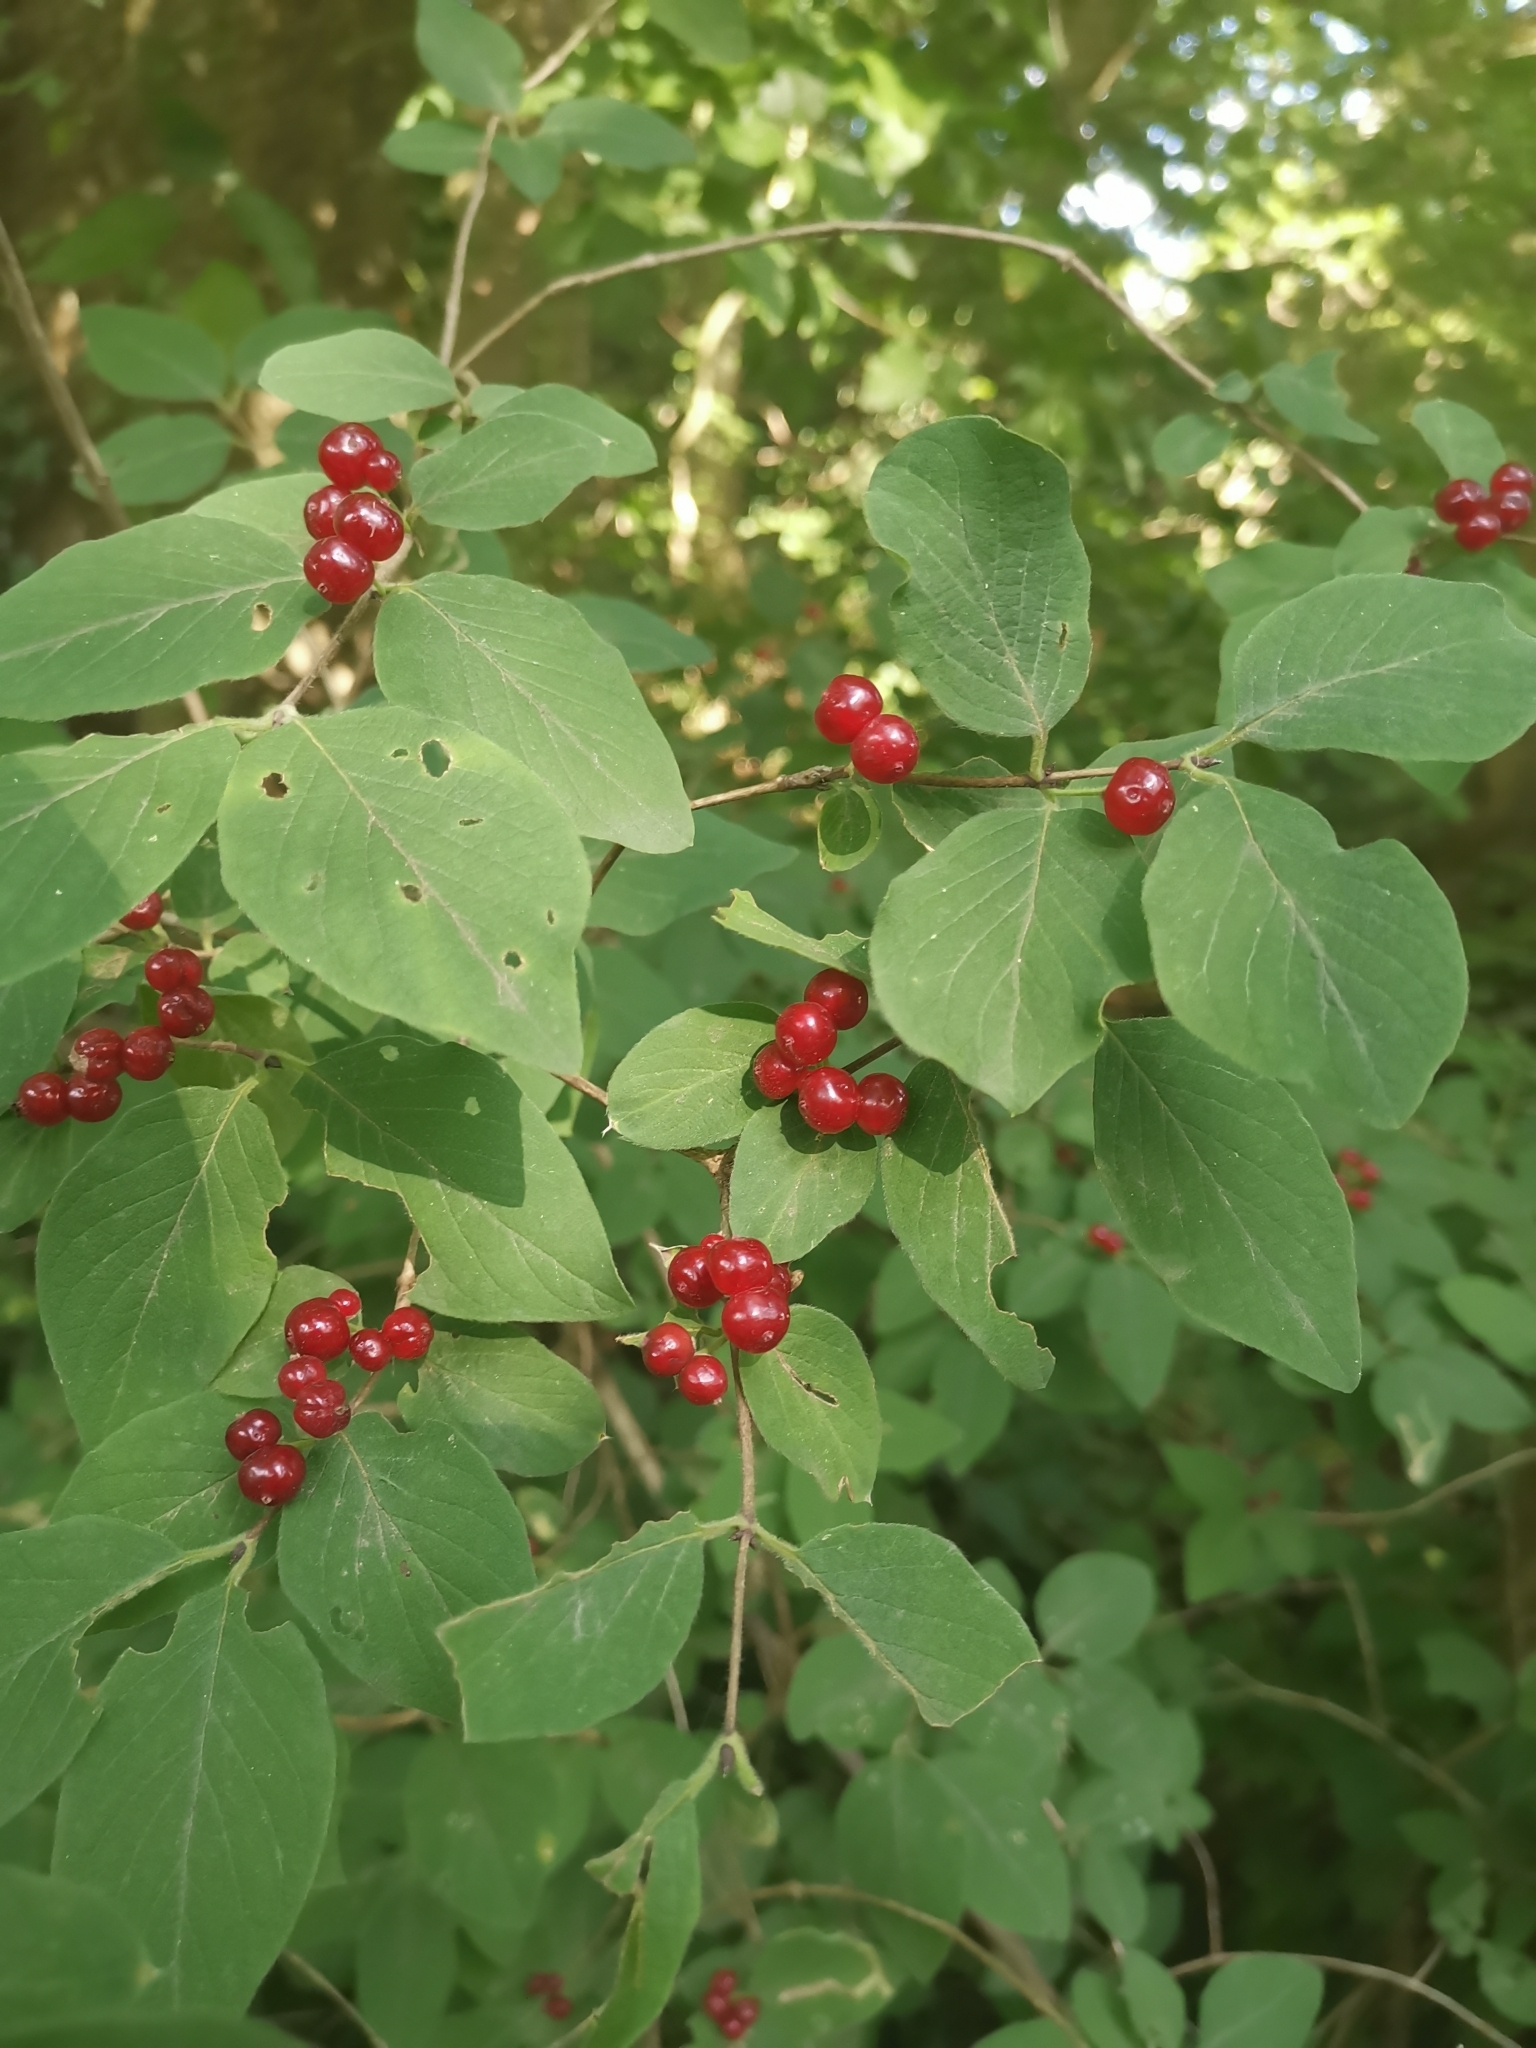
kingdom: Plantae
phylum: Tracheophyta
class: Magnoliopsida
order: Dipsacales
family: Caprifoliaceae
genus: Lonicera
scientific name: Lonicera xylosteum
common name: Fly honeysuckle
